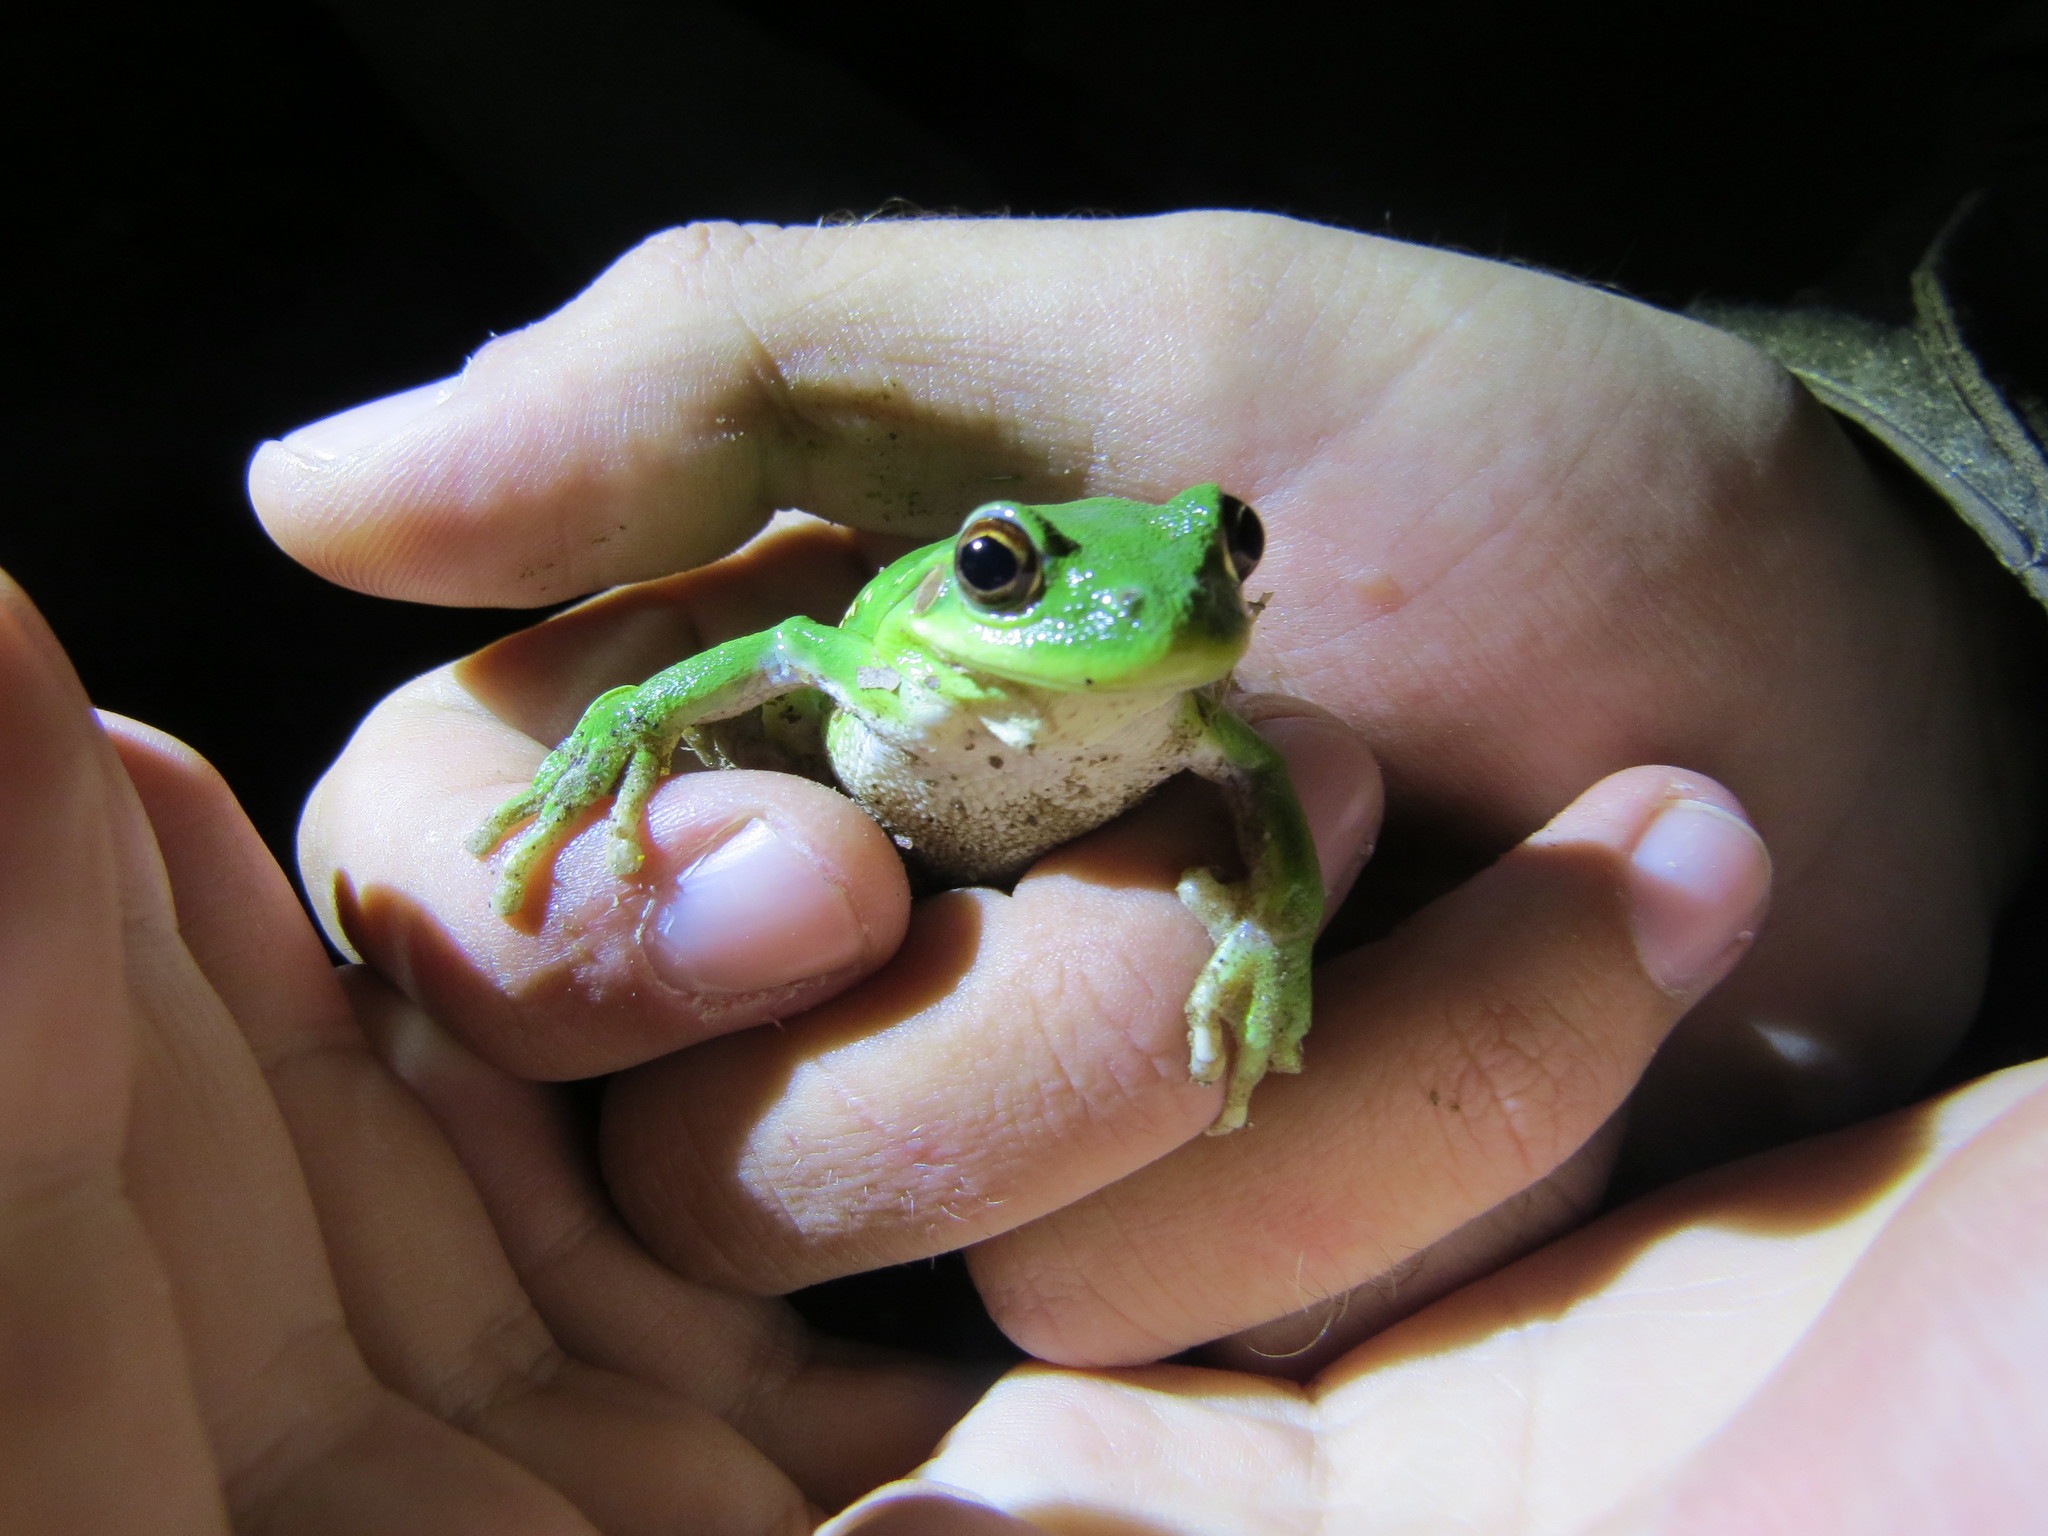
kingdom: Animalia
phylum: Chordata
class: Amphibia
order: Anura
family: Hylidae
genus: Boana
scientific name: Boana riojana
